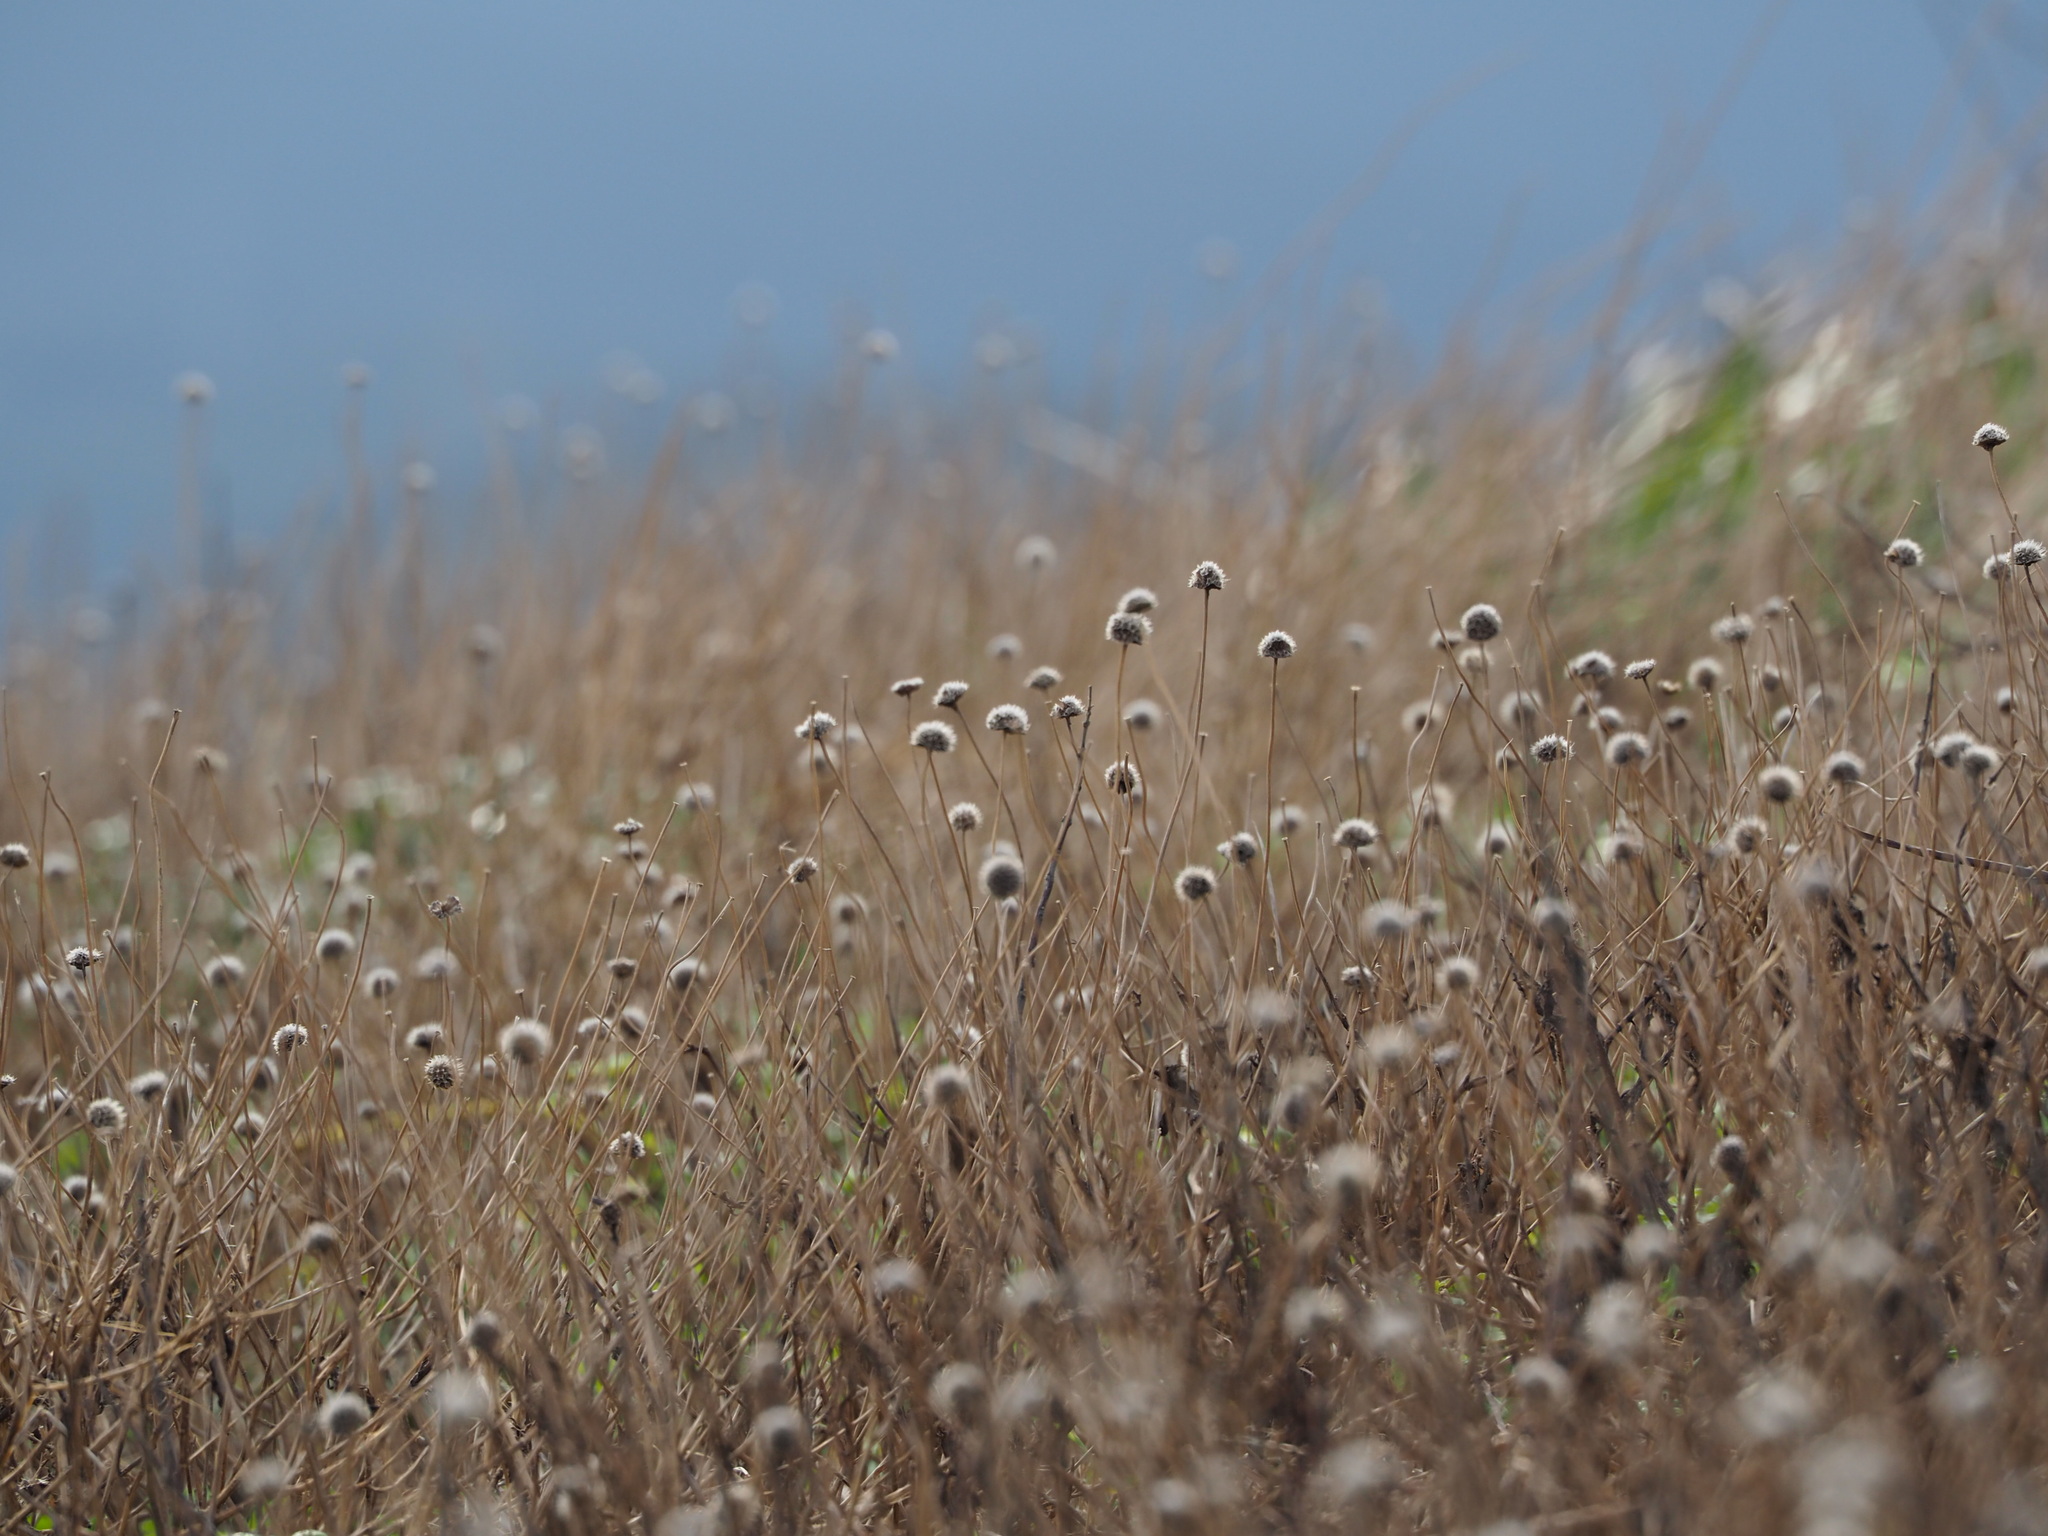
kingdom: Plantae
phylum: Tracheophyta
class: Magnoliopsida
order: Asterales
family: Asteraceae
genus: Gaillardia
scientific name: Gaillardia pulchella
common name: Firewheel
